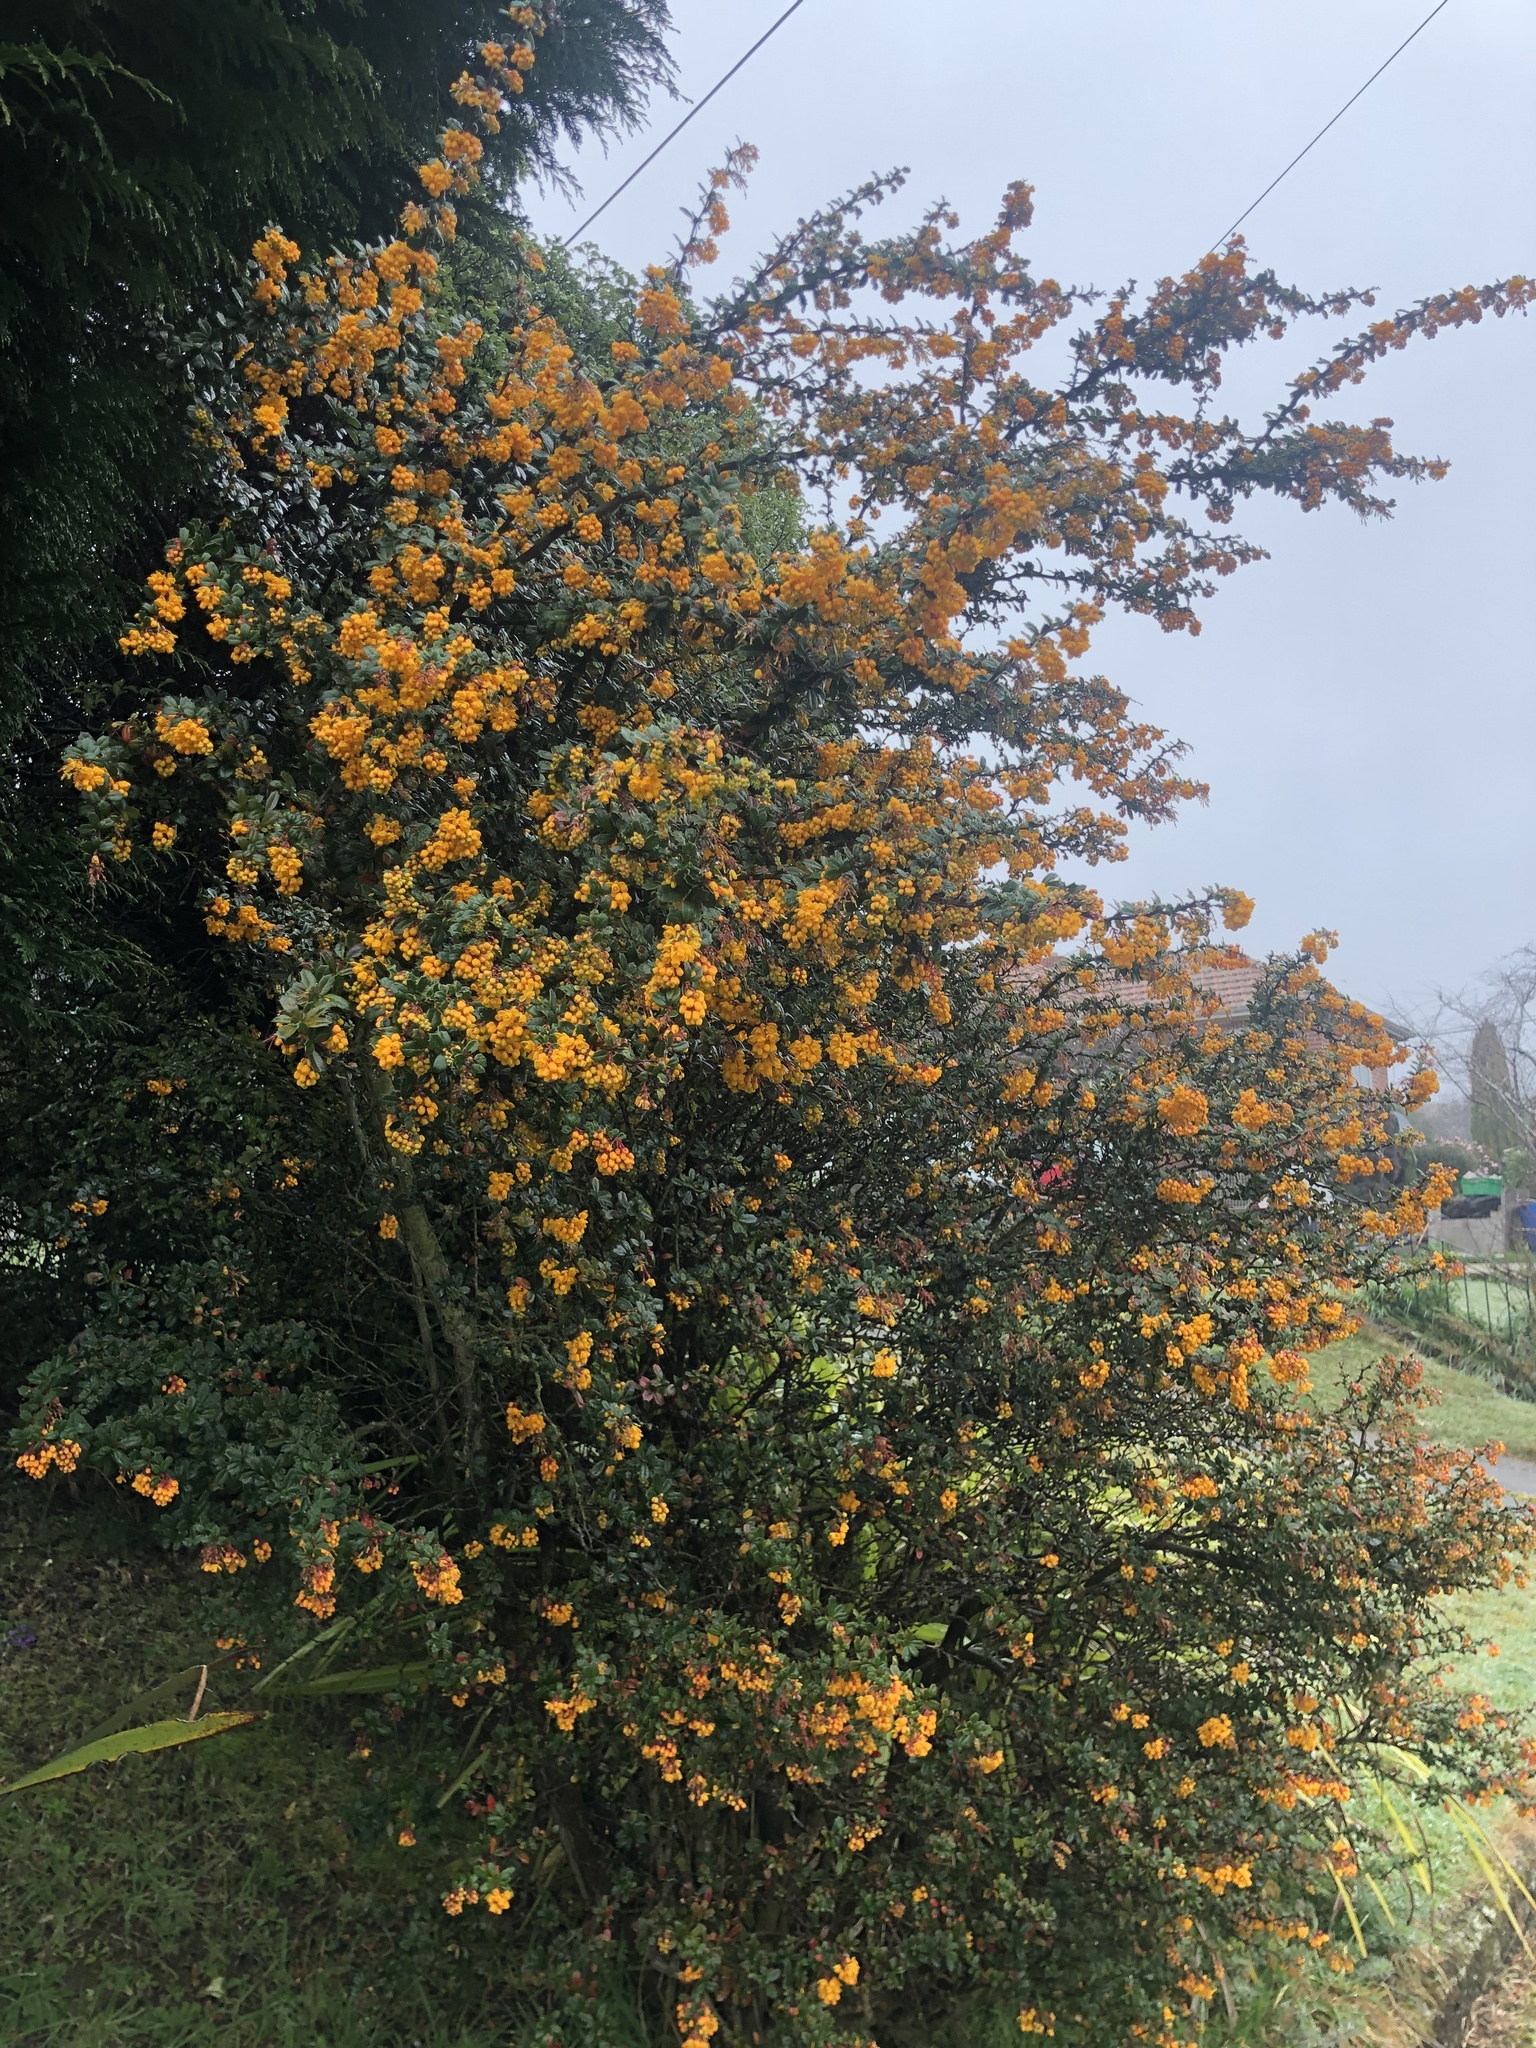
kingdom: Plantae
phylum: Tracheophyta
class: Magnoliopsida
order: Ranunculales
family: Berberidaceae
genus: Berberis
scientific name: Berberis darwinii
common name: Darwin's barberry
